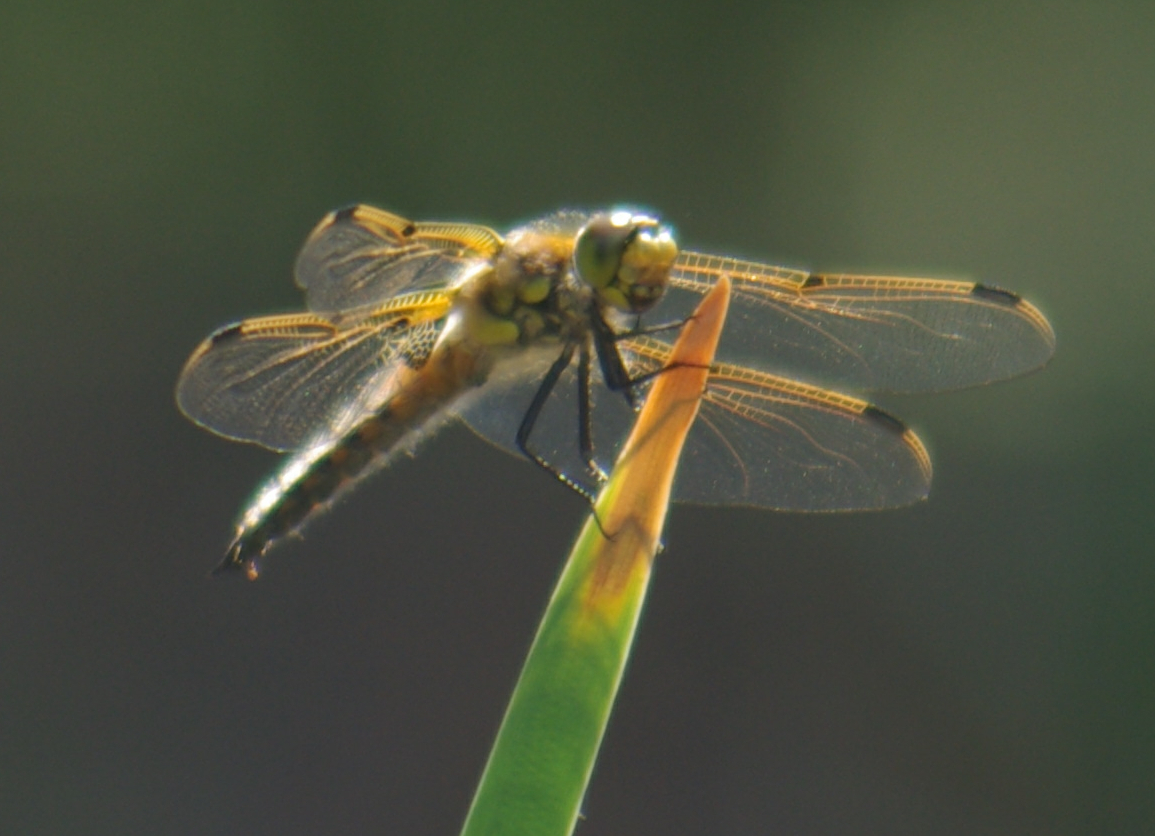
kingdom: Animalia
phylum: Arthropoda
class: Insecta
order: Odonata
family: Libellulidae
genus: Libellula
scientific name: Libellula quadrimaculata
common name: Four-spotted chaser
